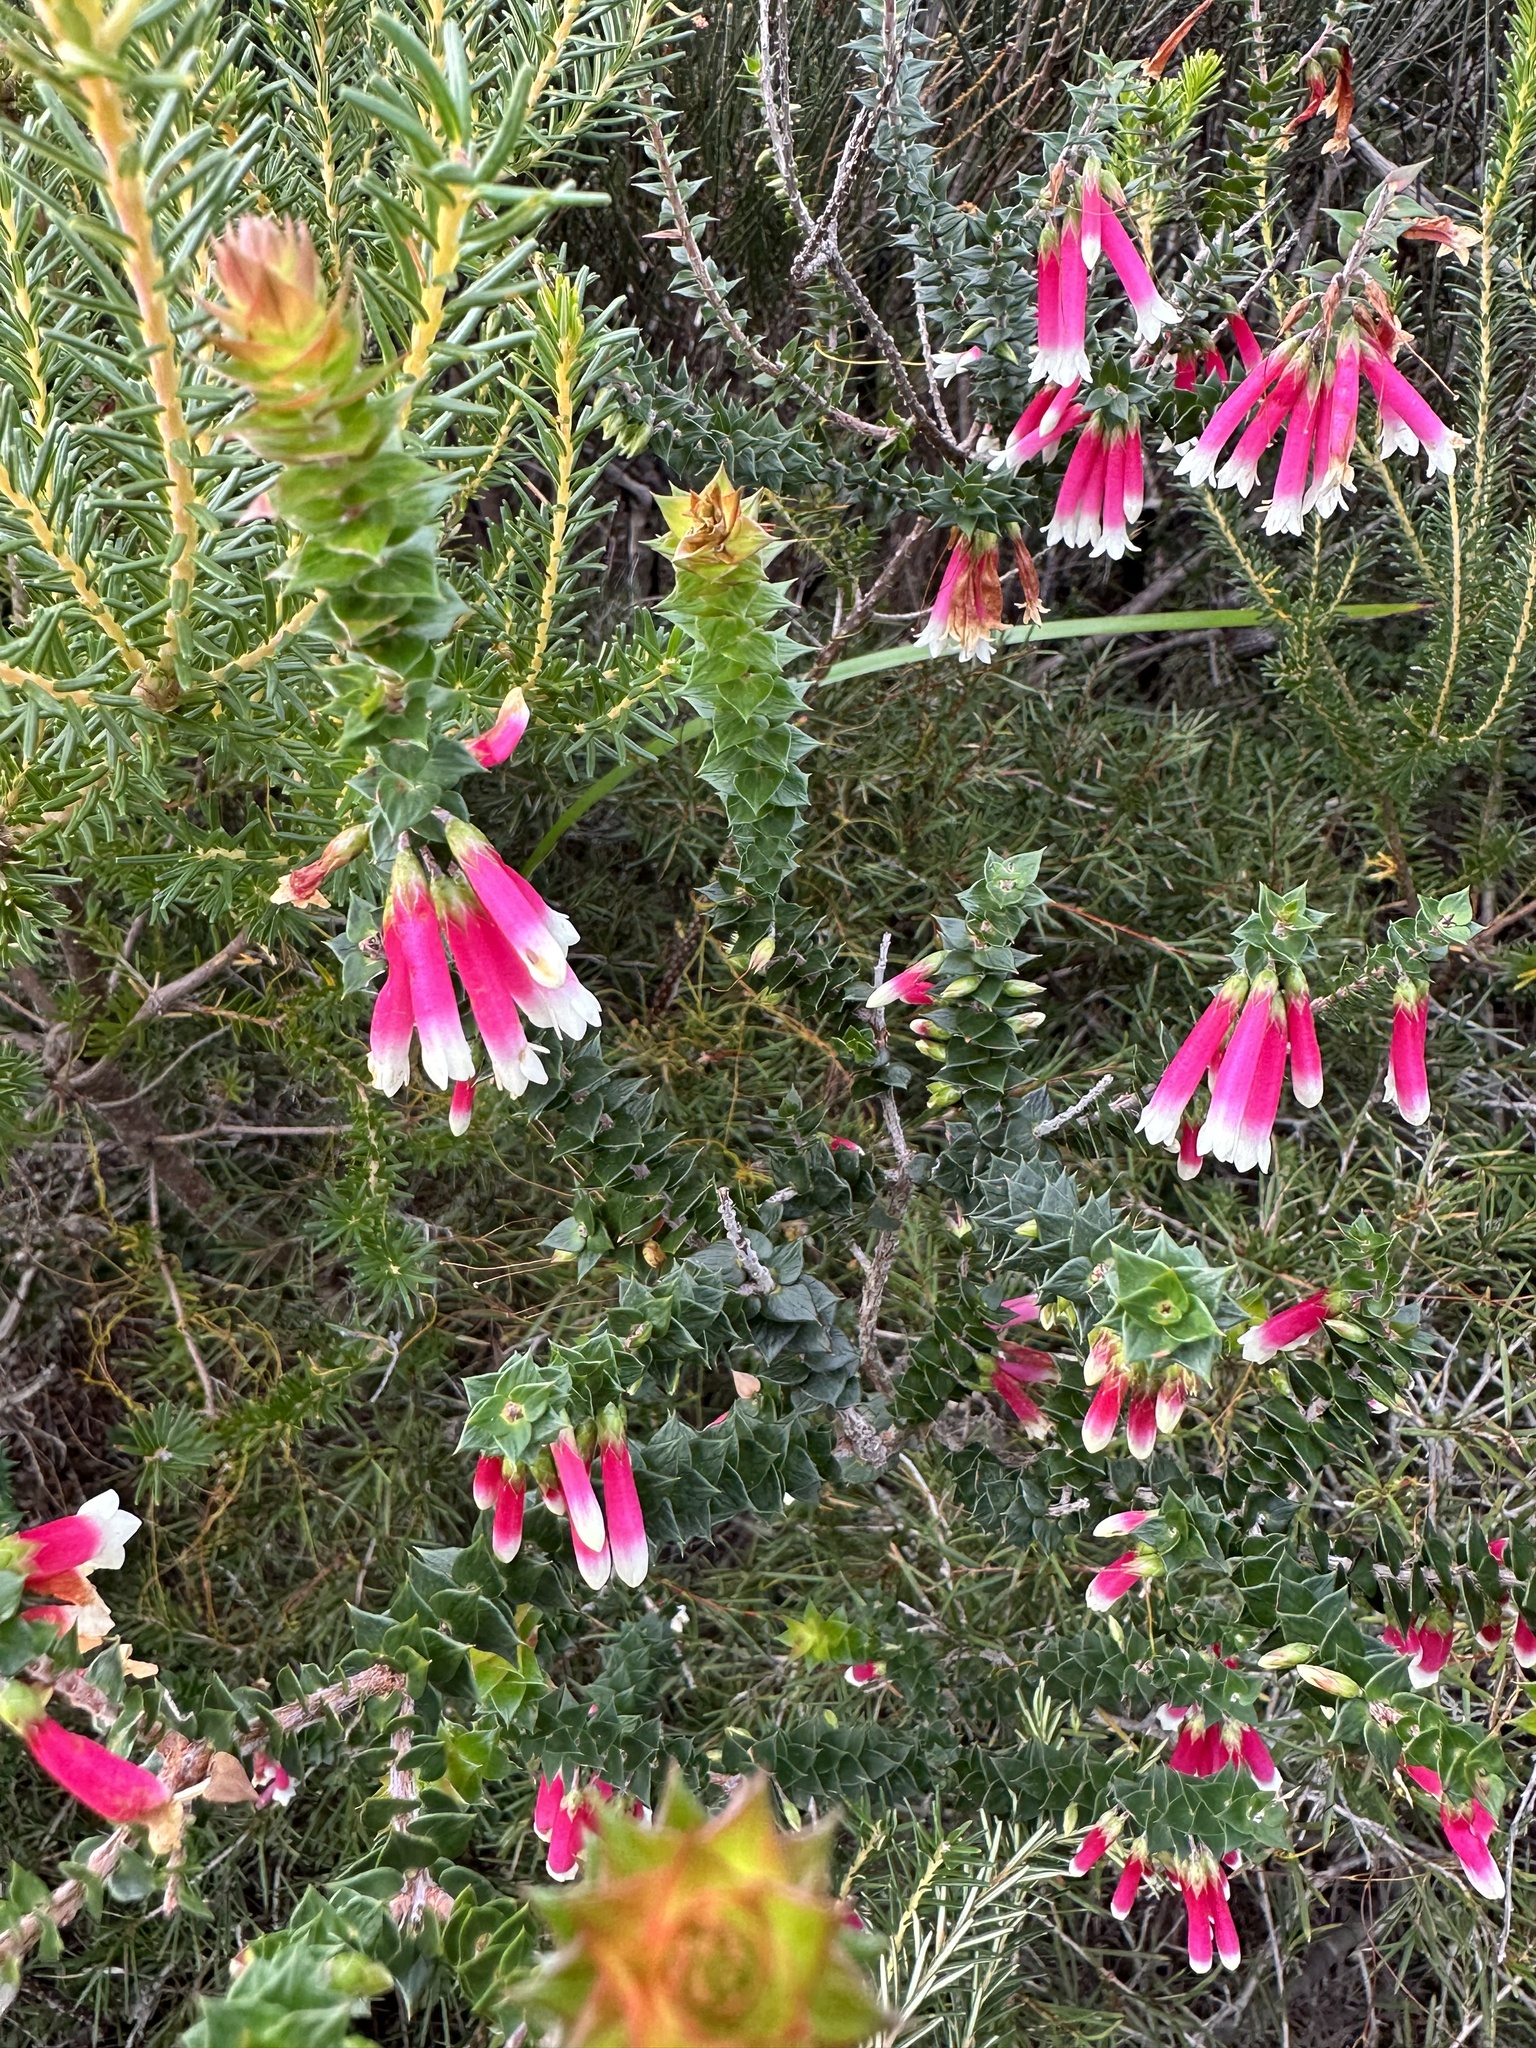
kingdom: Plantae
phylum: Tracheophyta
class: Magnoliopsida
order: Ericales
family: Ericaceae
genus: Epacris
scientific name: Epacris longiflora
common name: Fuchsia-heath
